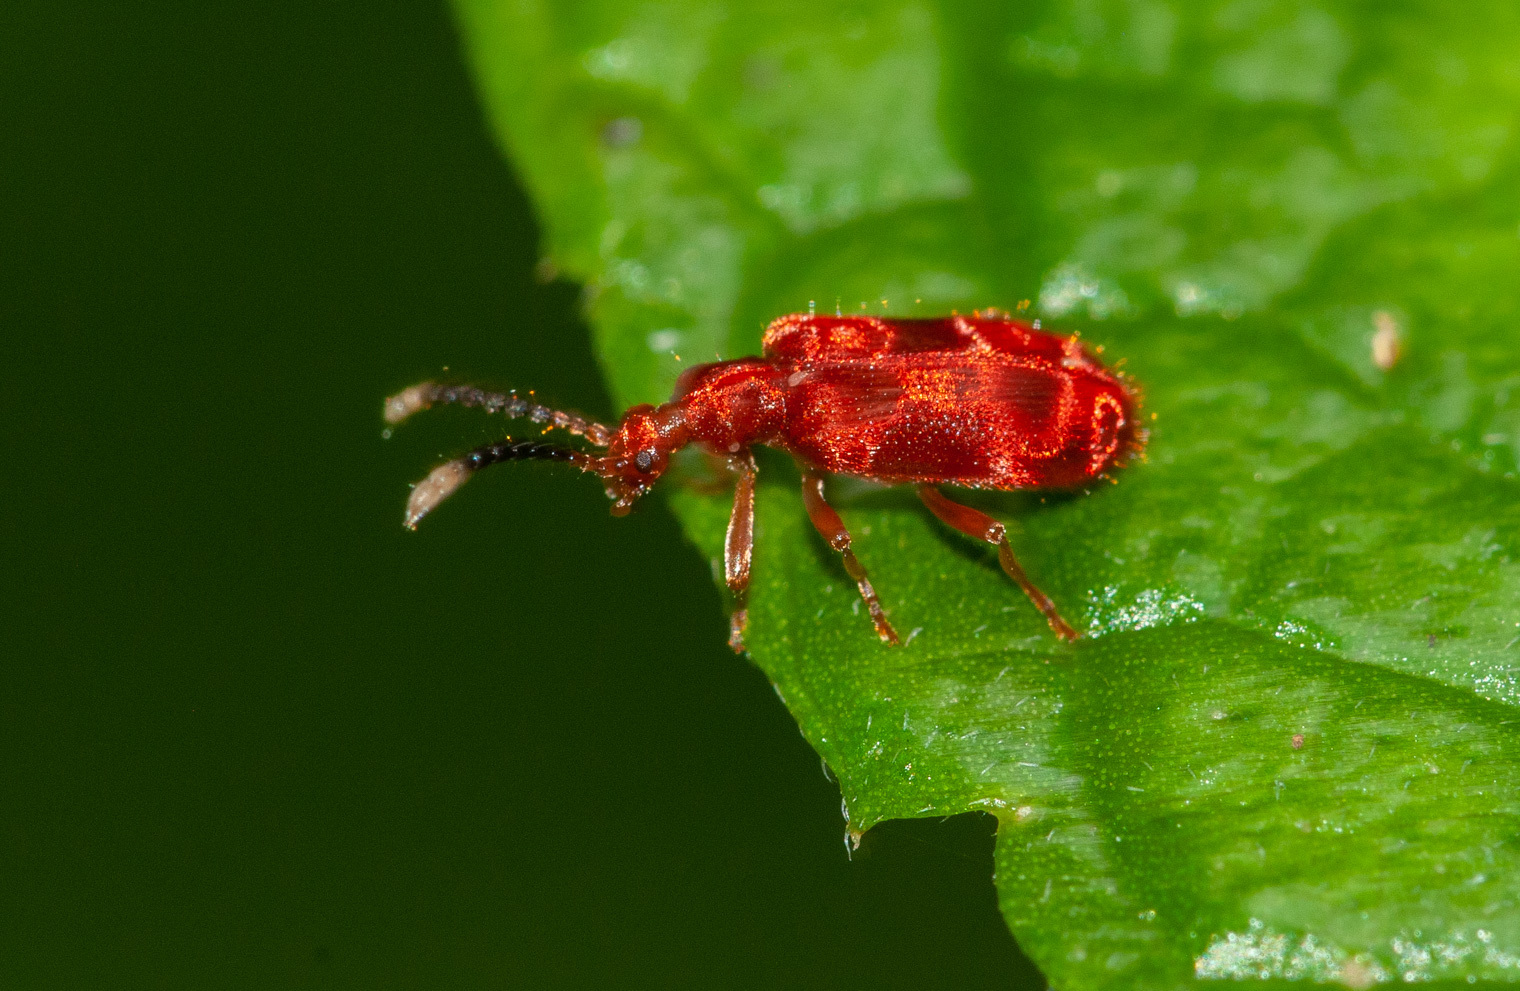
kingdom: Animalia
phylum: Arthropoda
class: Insecta
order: Coleoptera
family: Anthicidae
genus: Lemodes
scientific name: Lemodes
